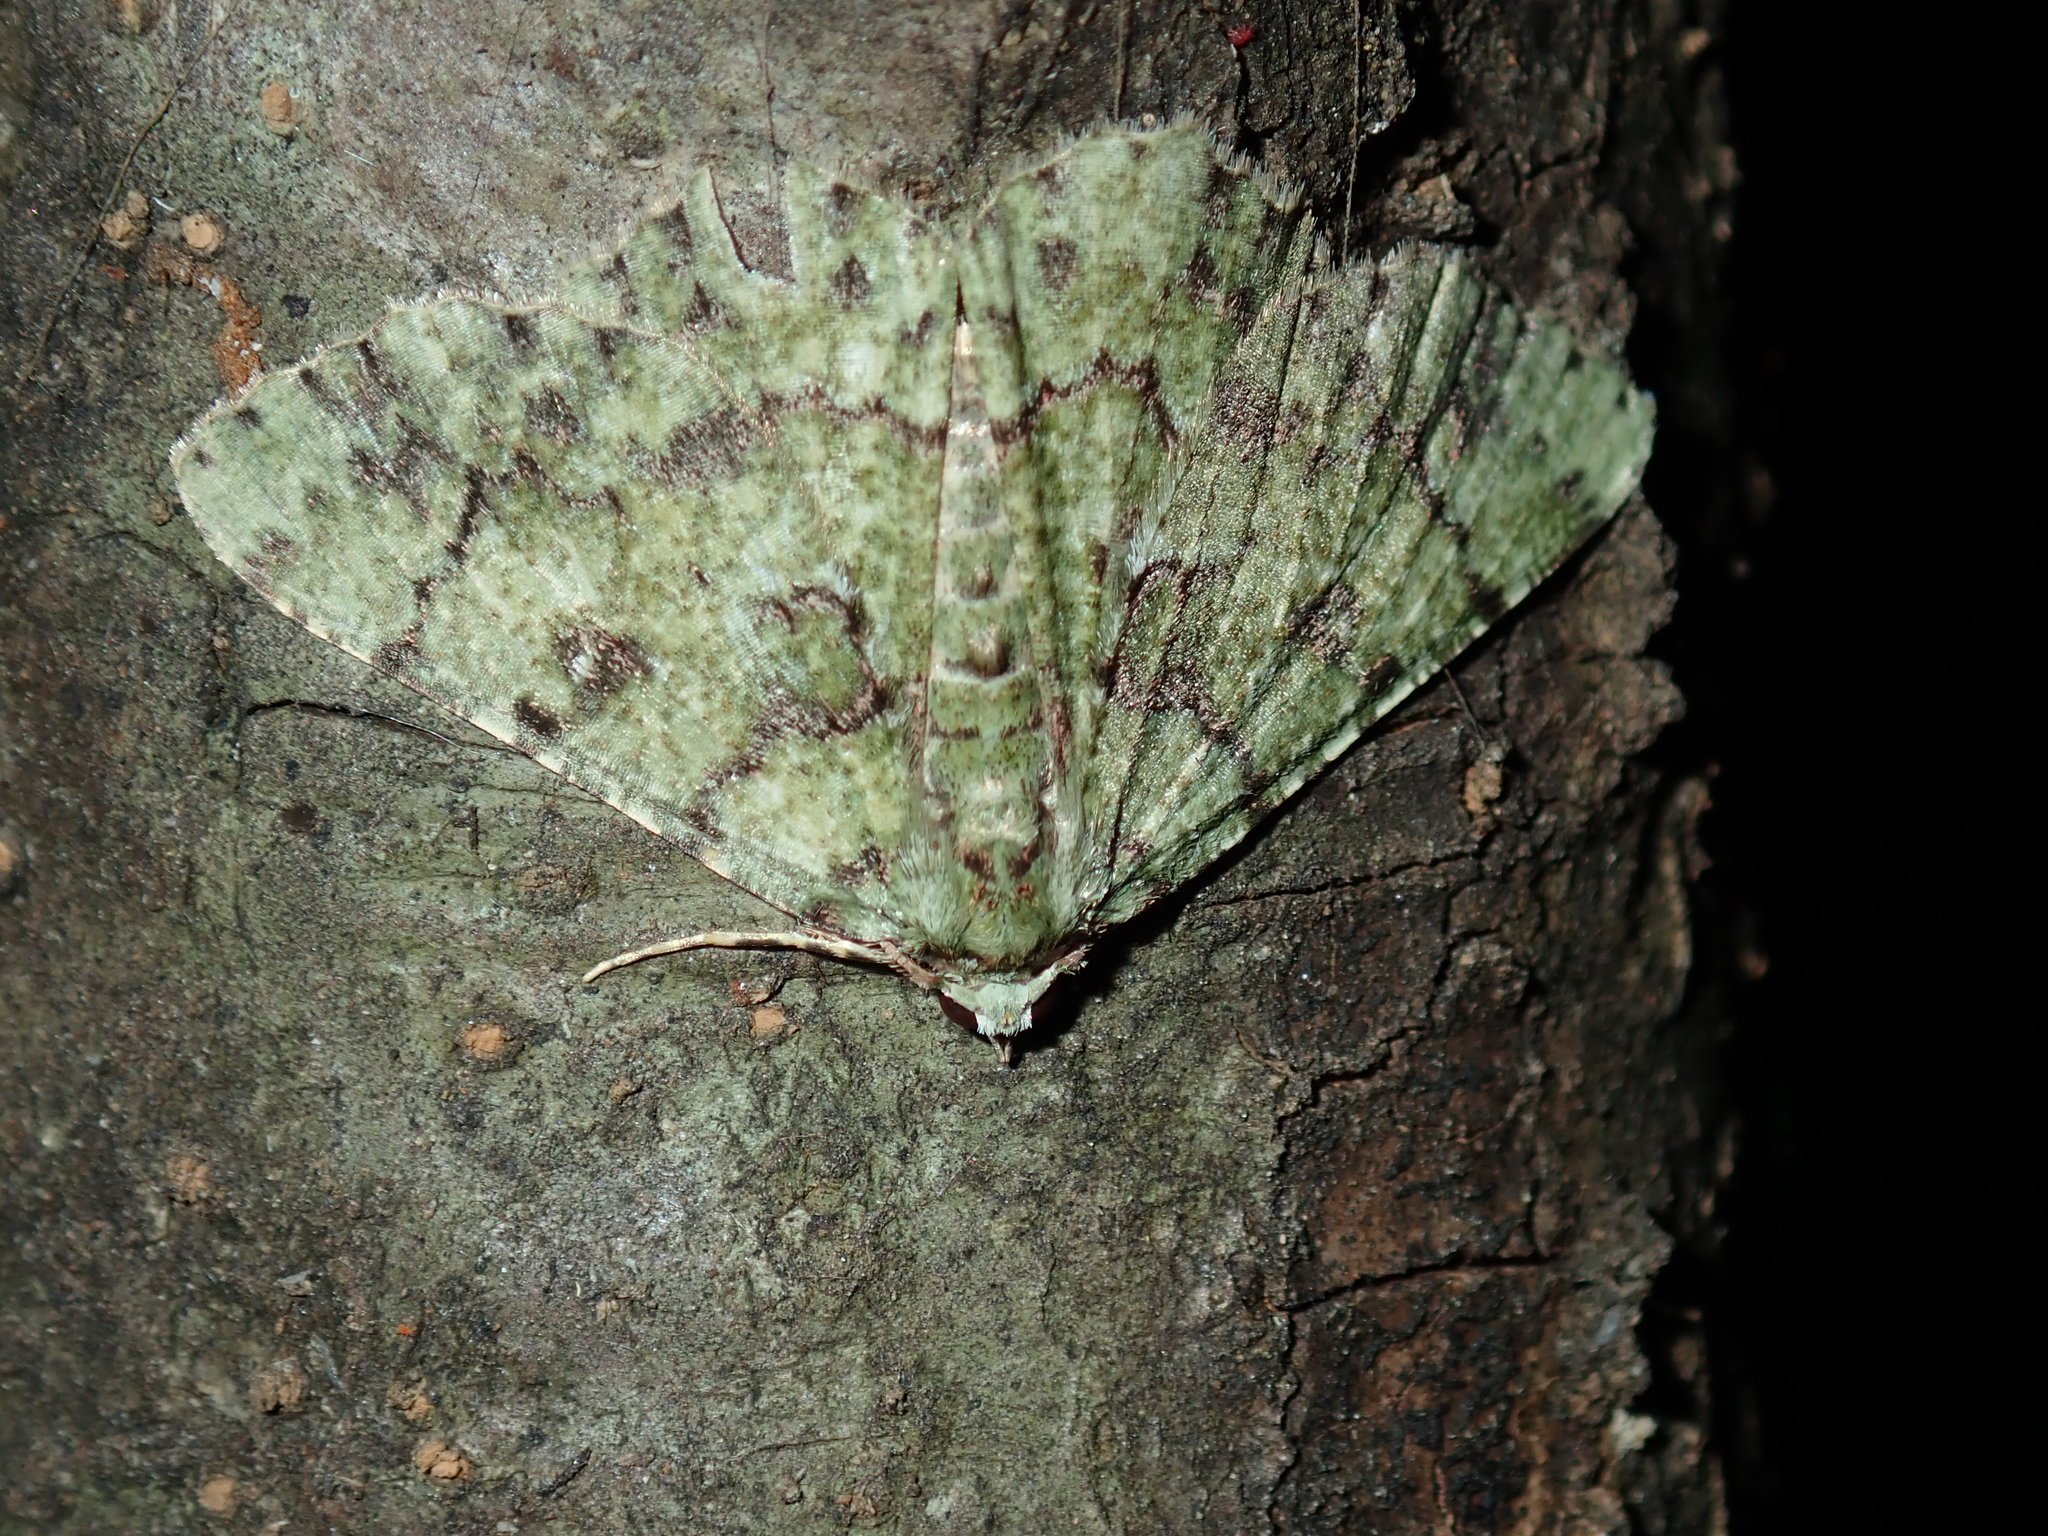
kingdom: Animalia
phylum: Arthropoda
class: Insecta
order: Lepidoptera
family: Geometridae
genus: Aeolochroma
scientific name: Aeolochroma hypochromaria
